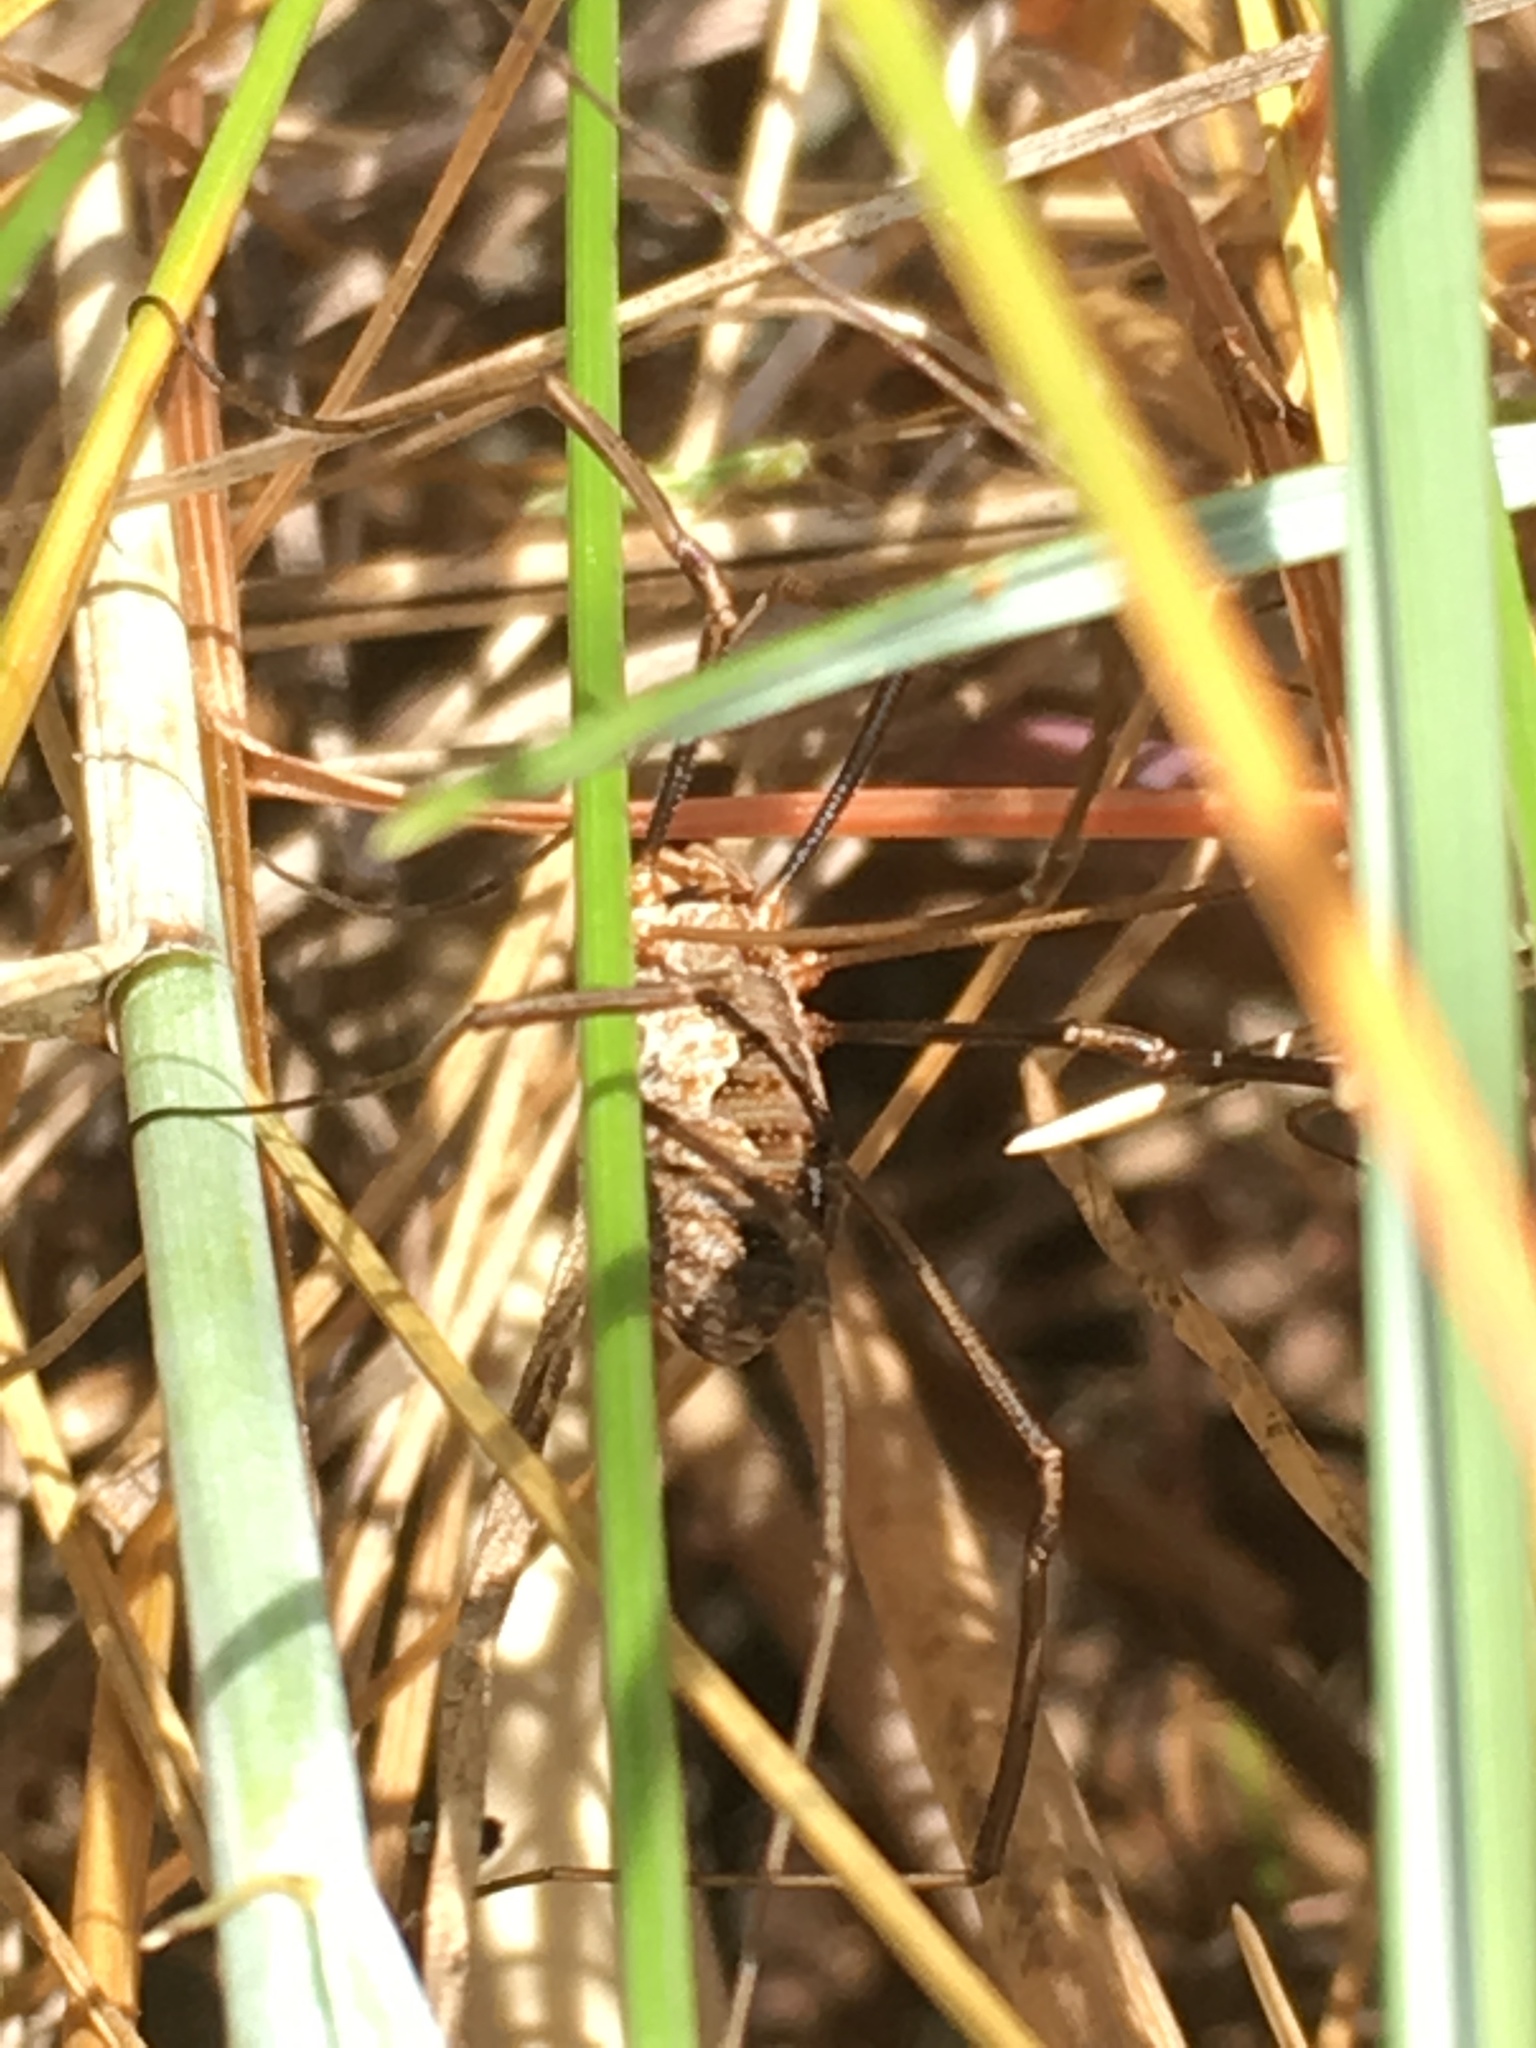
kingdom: Animalia
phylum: Arthropoda
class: Arachnida
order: Opiliones
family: Phalangiidae
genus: Phalangium
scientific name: Phalangium opilio
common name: Daddy longleg
